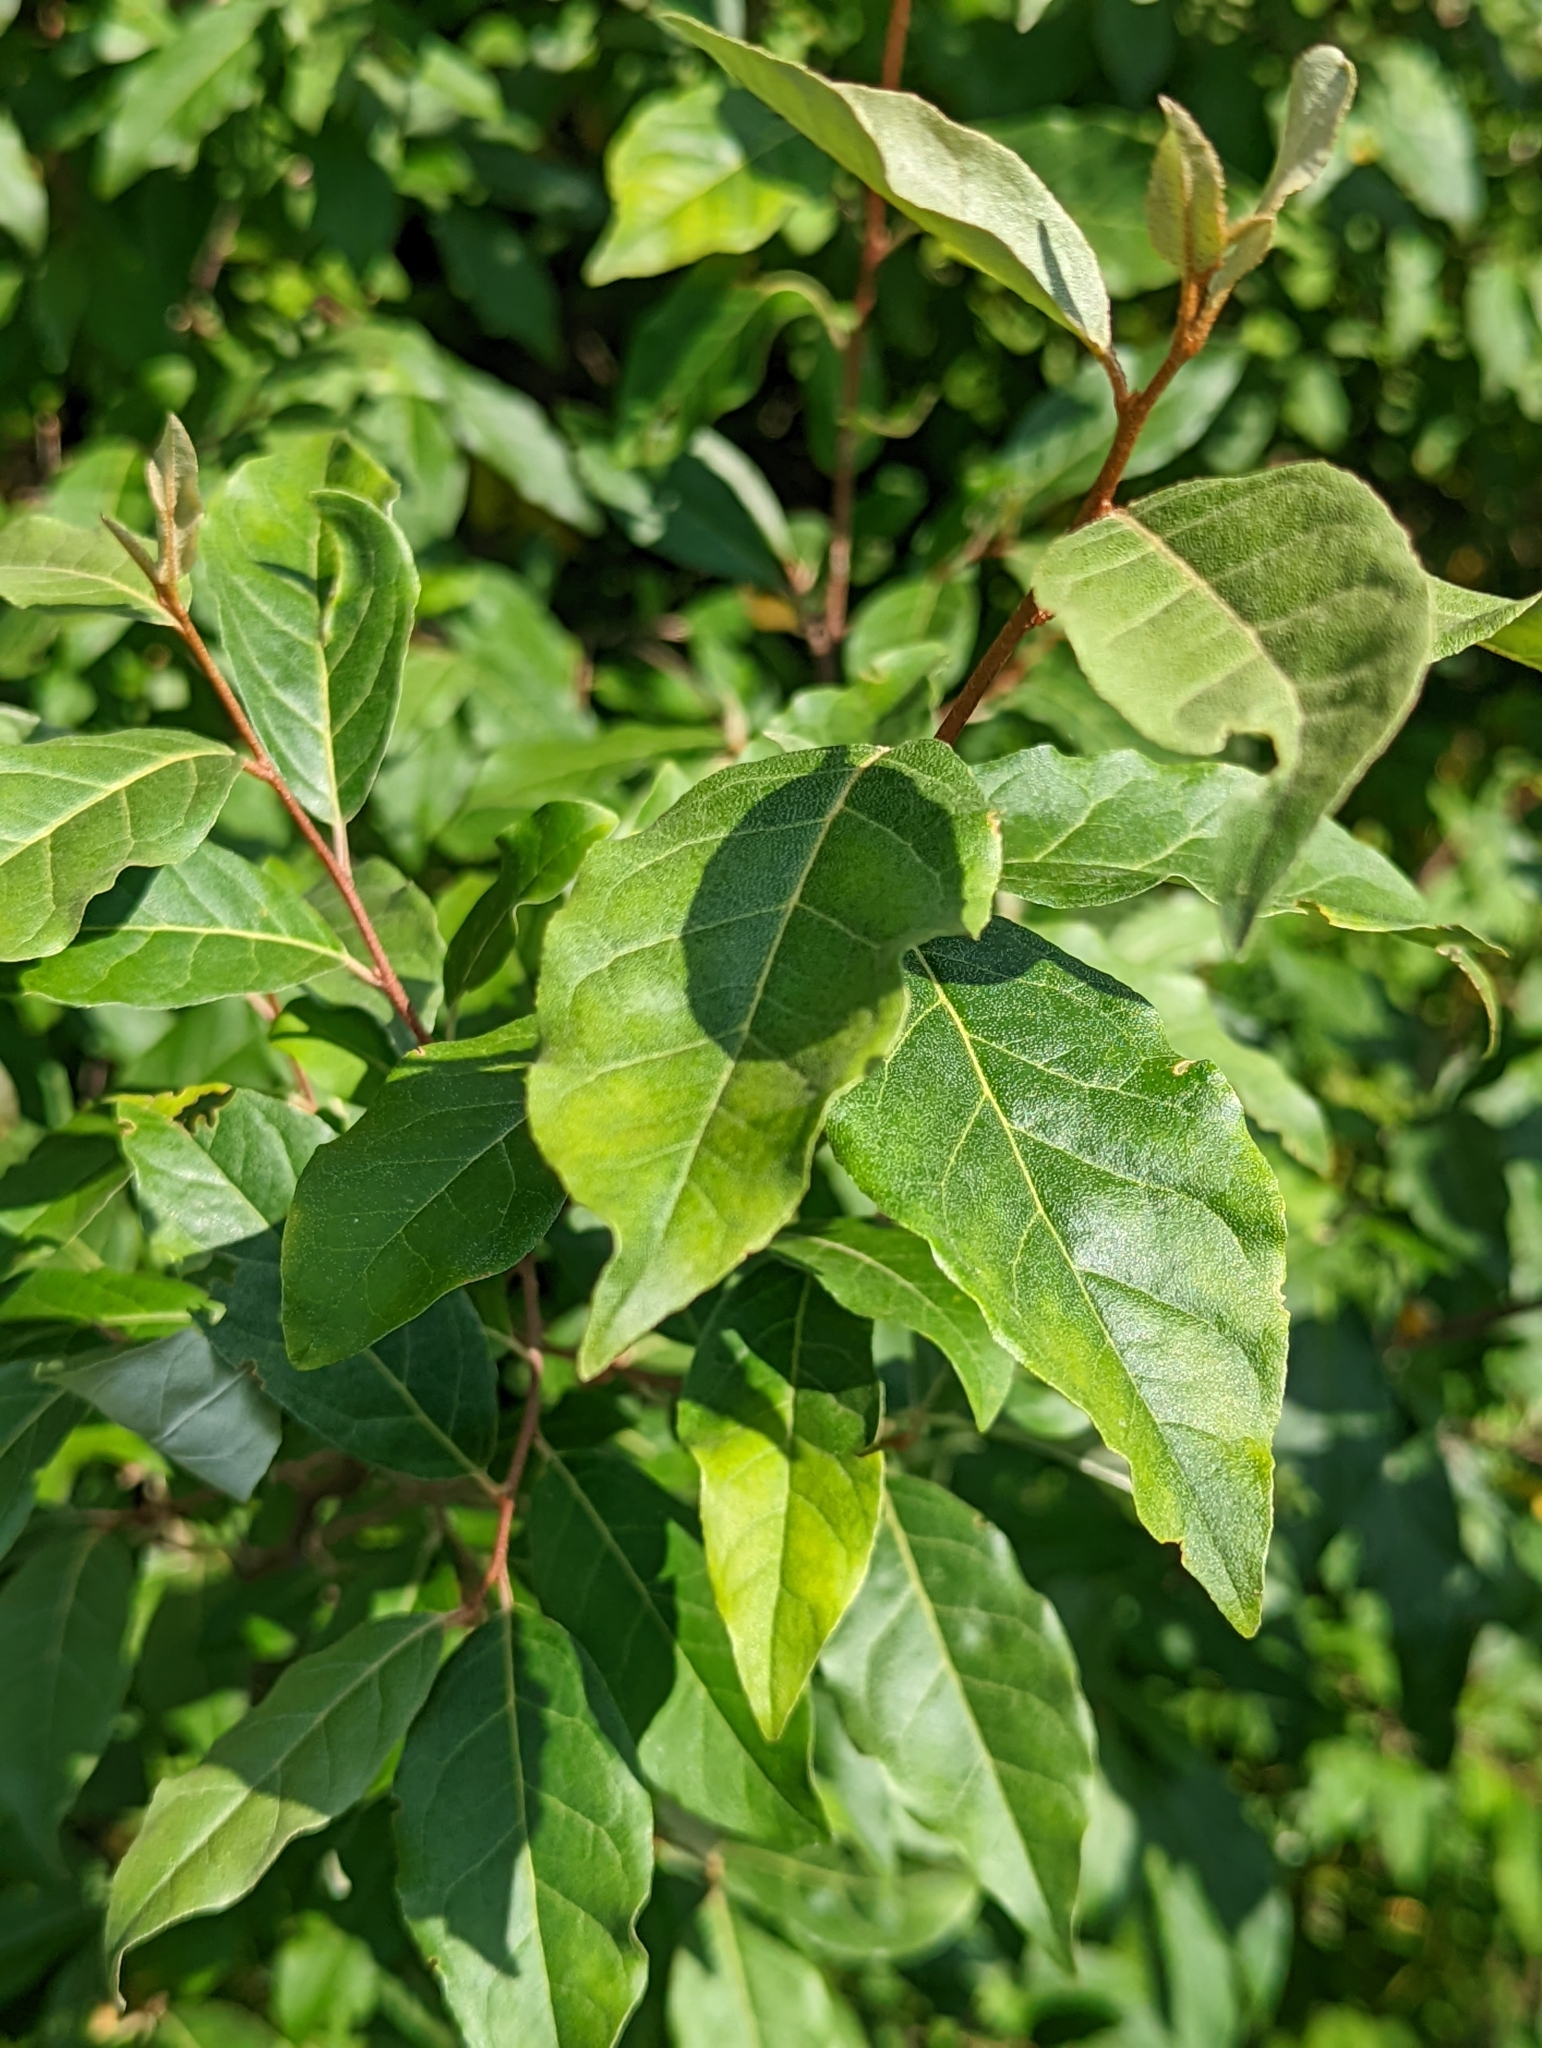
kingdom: Plantae
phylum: Tracheophyta
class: Magnoliopsida
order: Rosales
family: Elaeagnaceae
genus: Elaeagnus
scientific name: Elaeagnus umbellata
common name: Autumn olive
